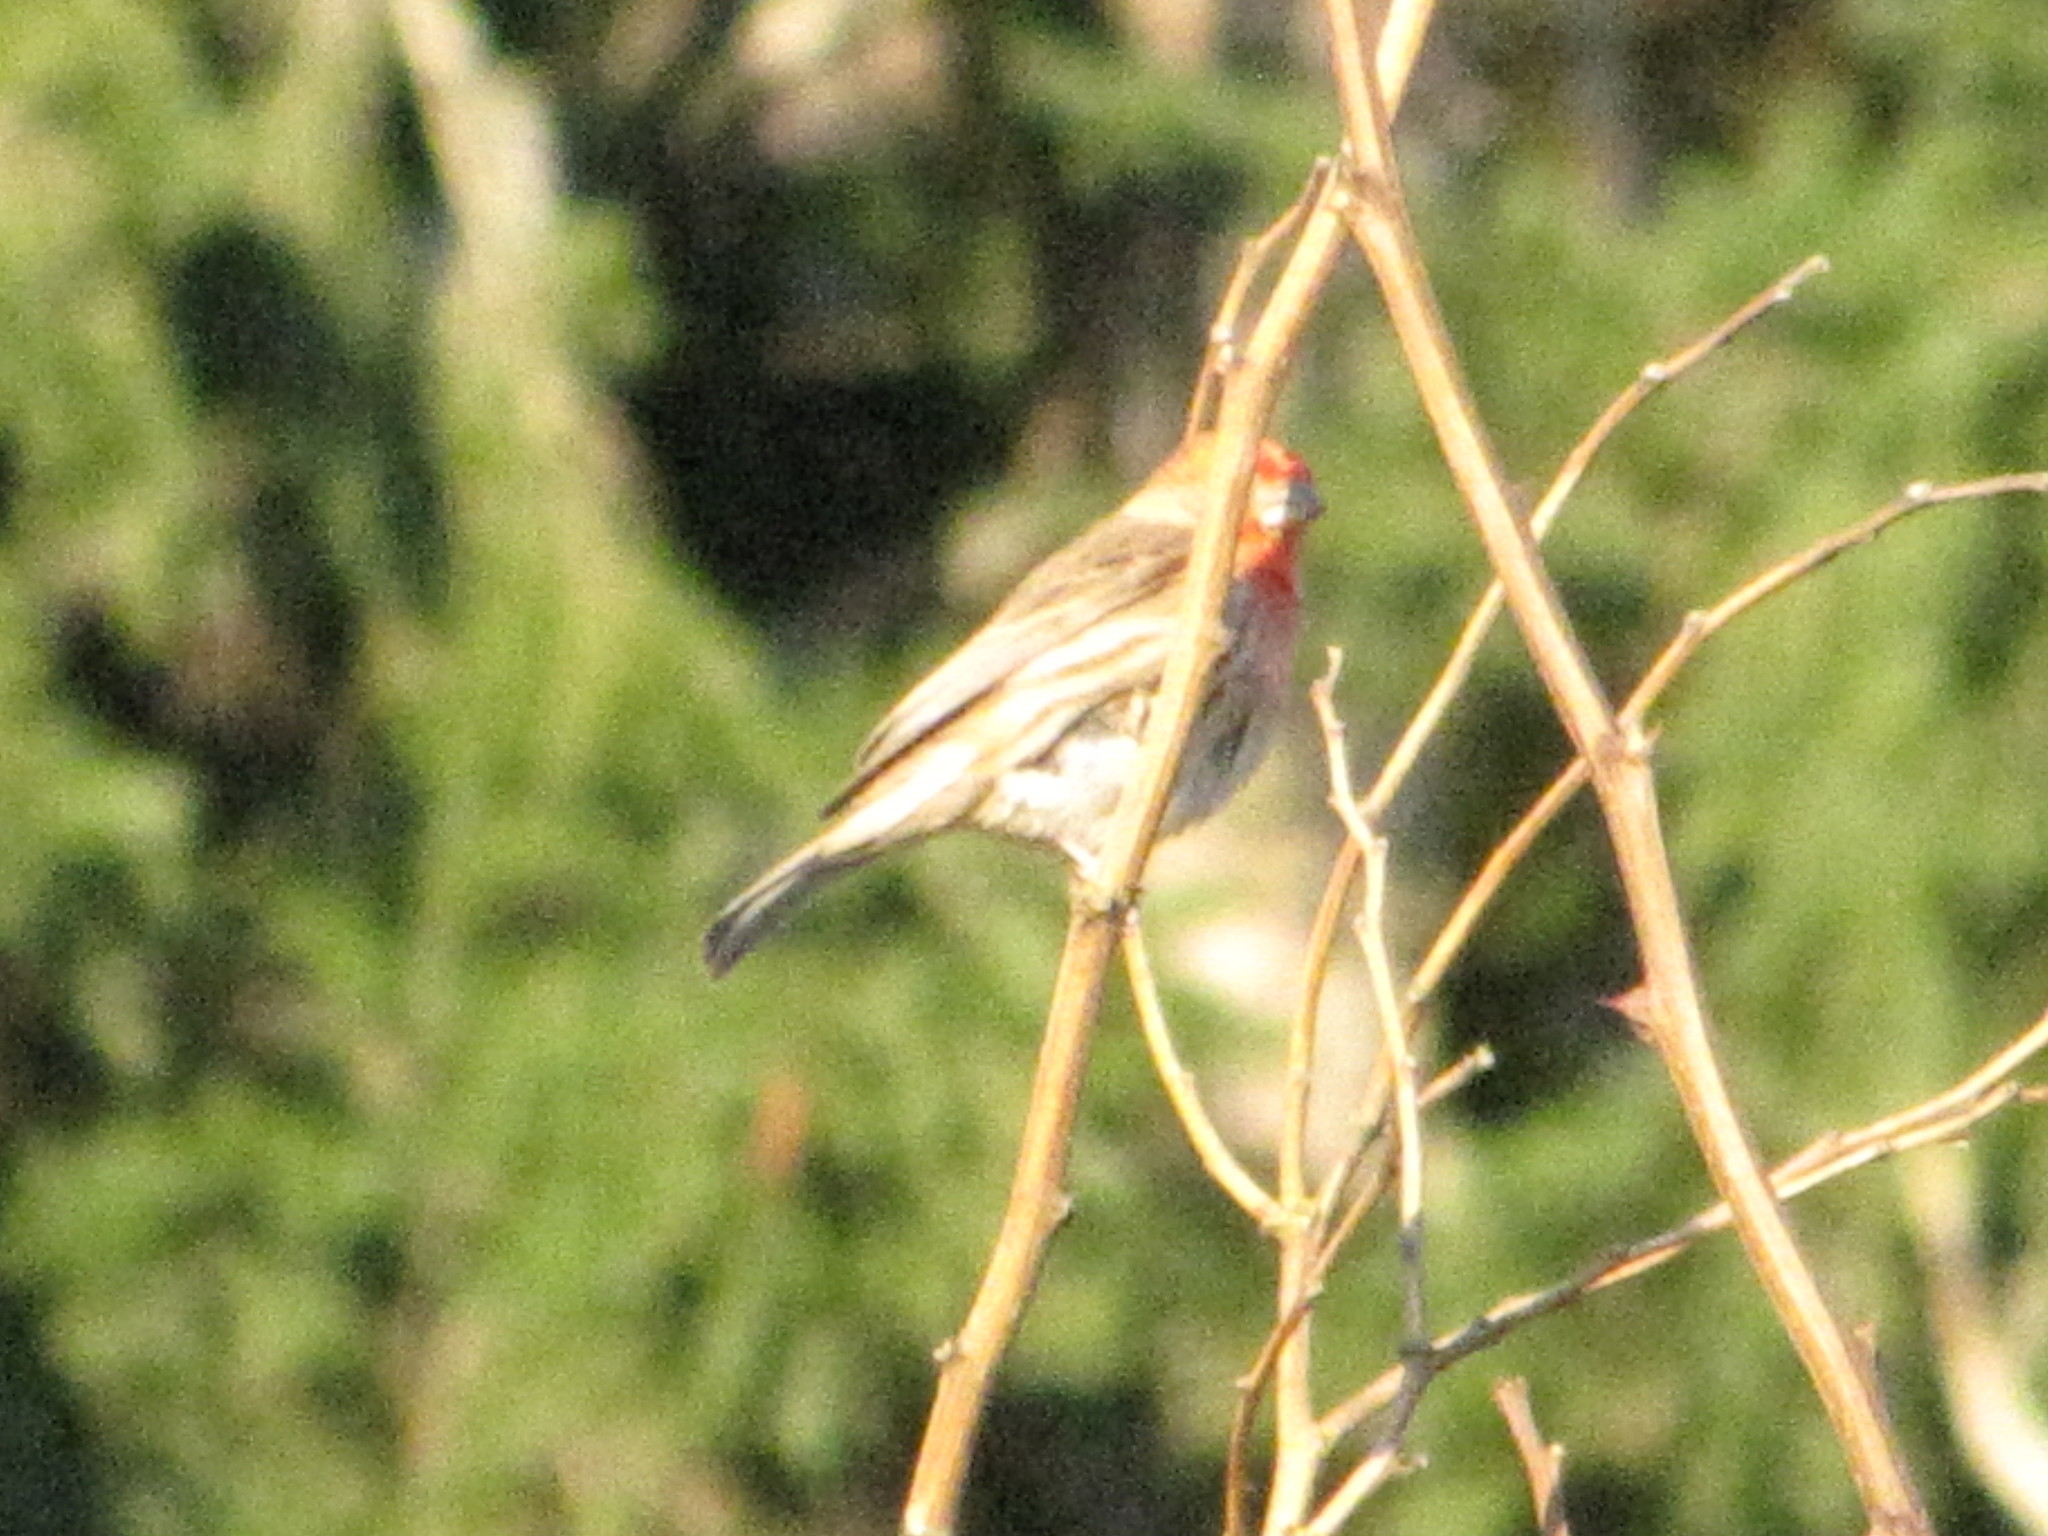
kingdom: Animalia
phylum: Chordata
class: Aves
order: Passeriformes
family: Fringillidae
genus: Haemorhous
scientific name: Haemorhous mexicanus
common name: House finch
